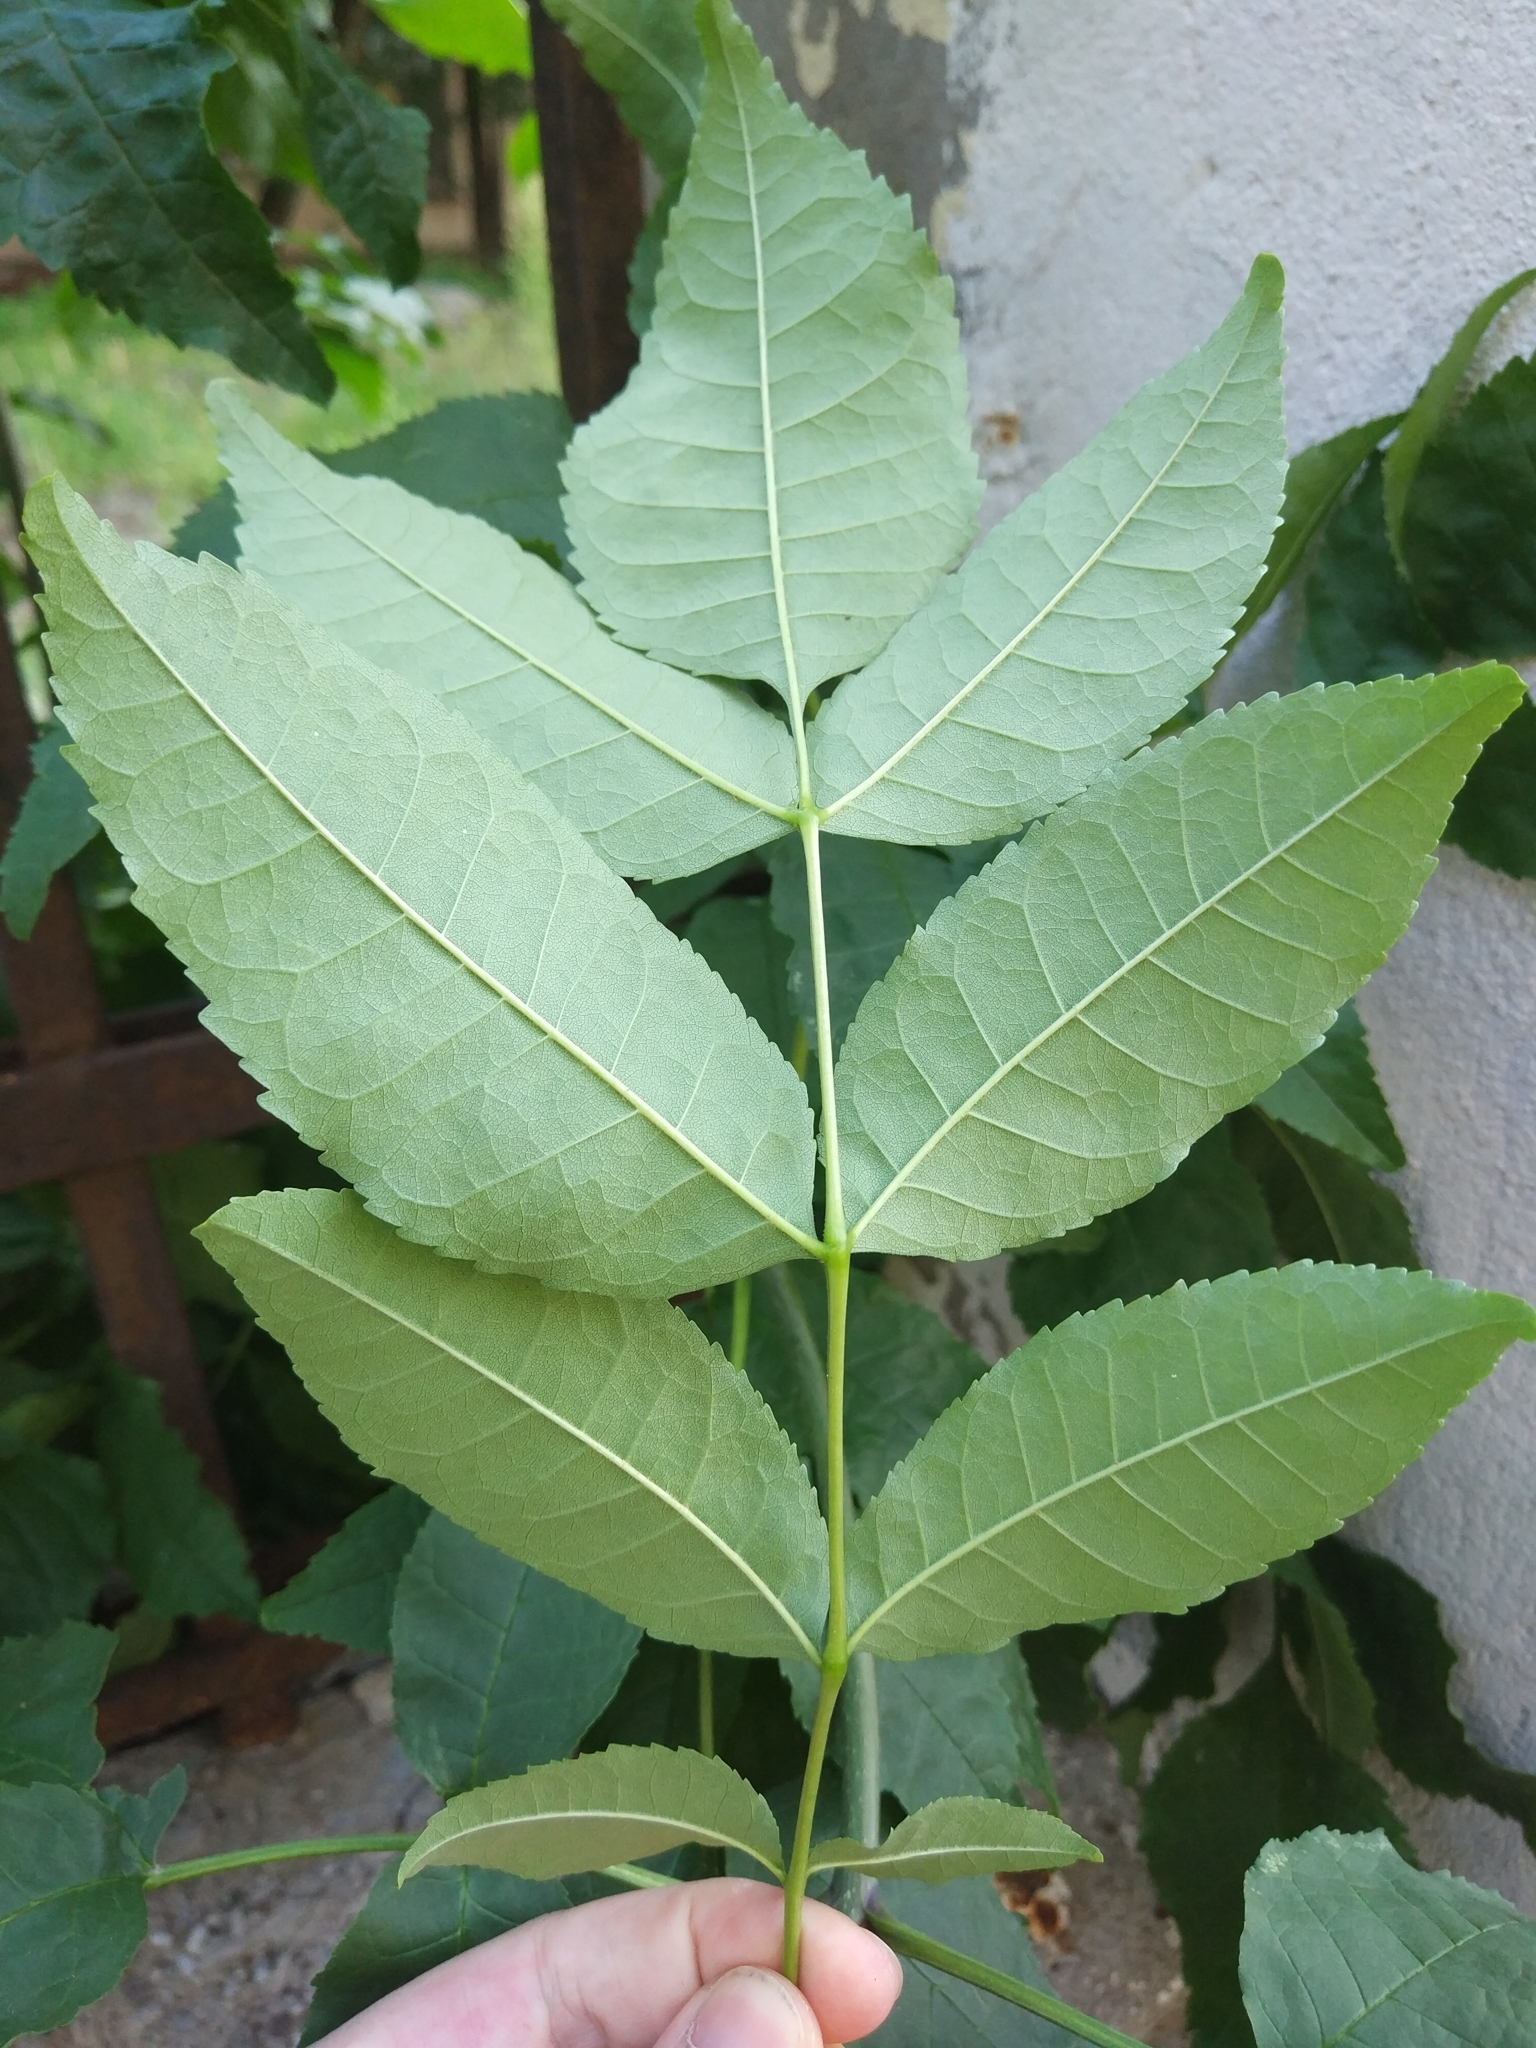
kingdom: Plantae
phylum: Tracheophyta
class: Magnoliopsida
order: Lamiales
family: Oleaceae
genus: Fraxinus
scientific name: Fraxinus pennsylvanica
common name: Green ash
